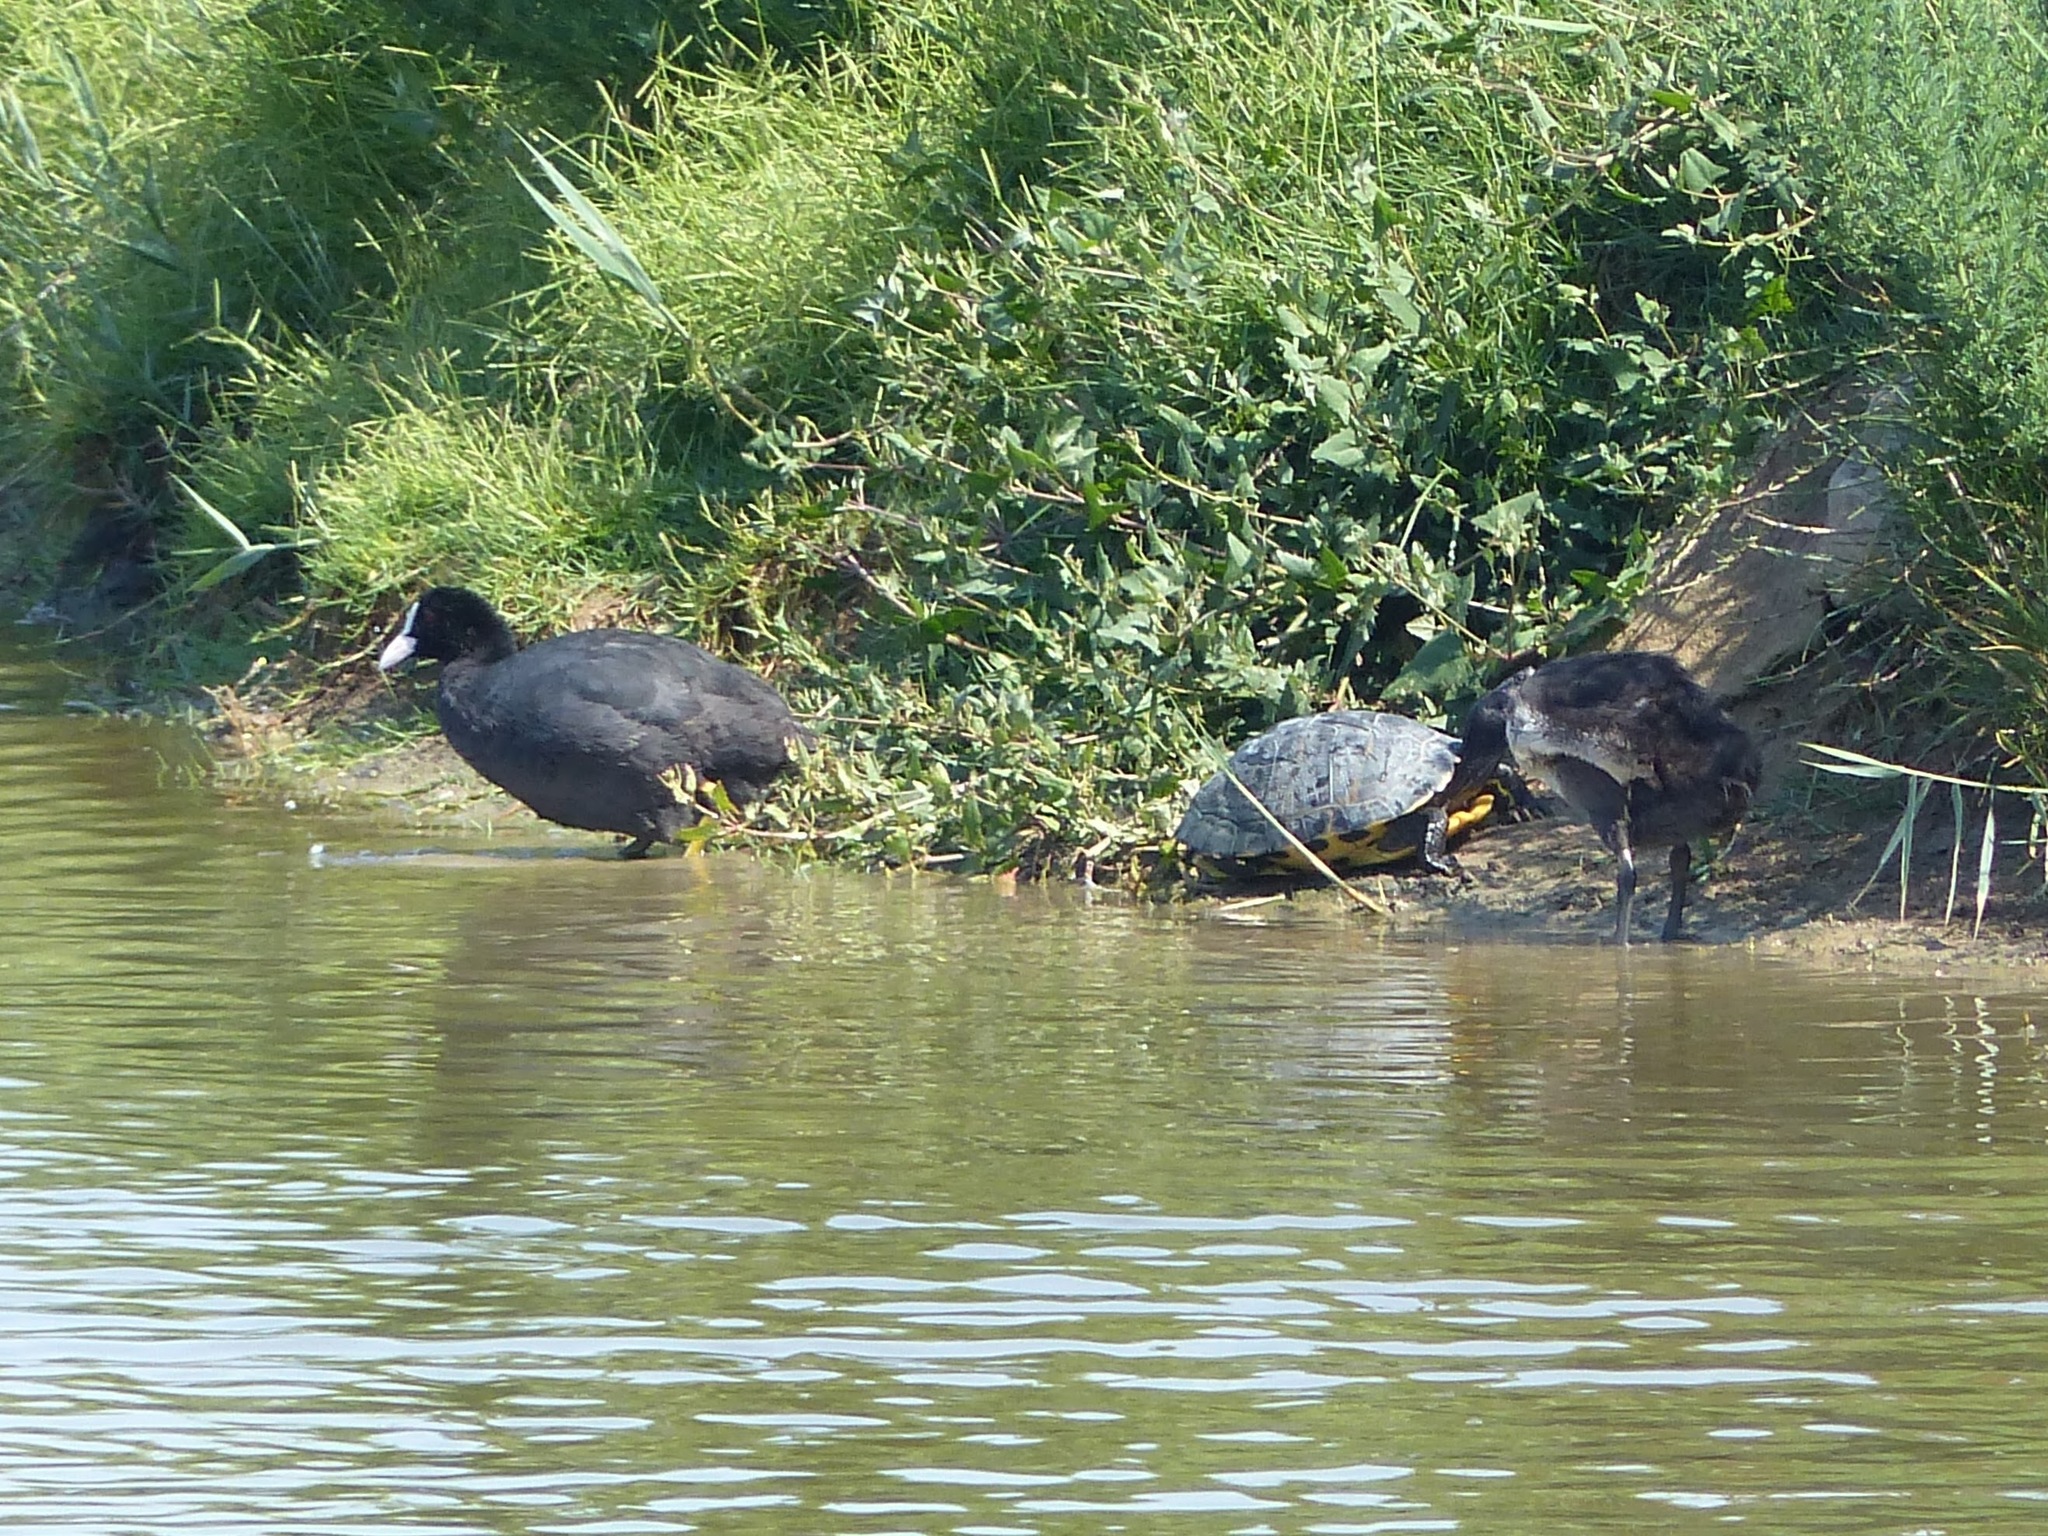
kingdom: Animalia
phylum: Chordata
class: Aves
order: Gruiformes
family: Rallidae
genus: Fulica
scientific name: Fulica atra
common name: Eurasian coot
